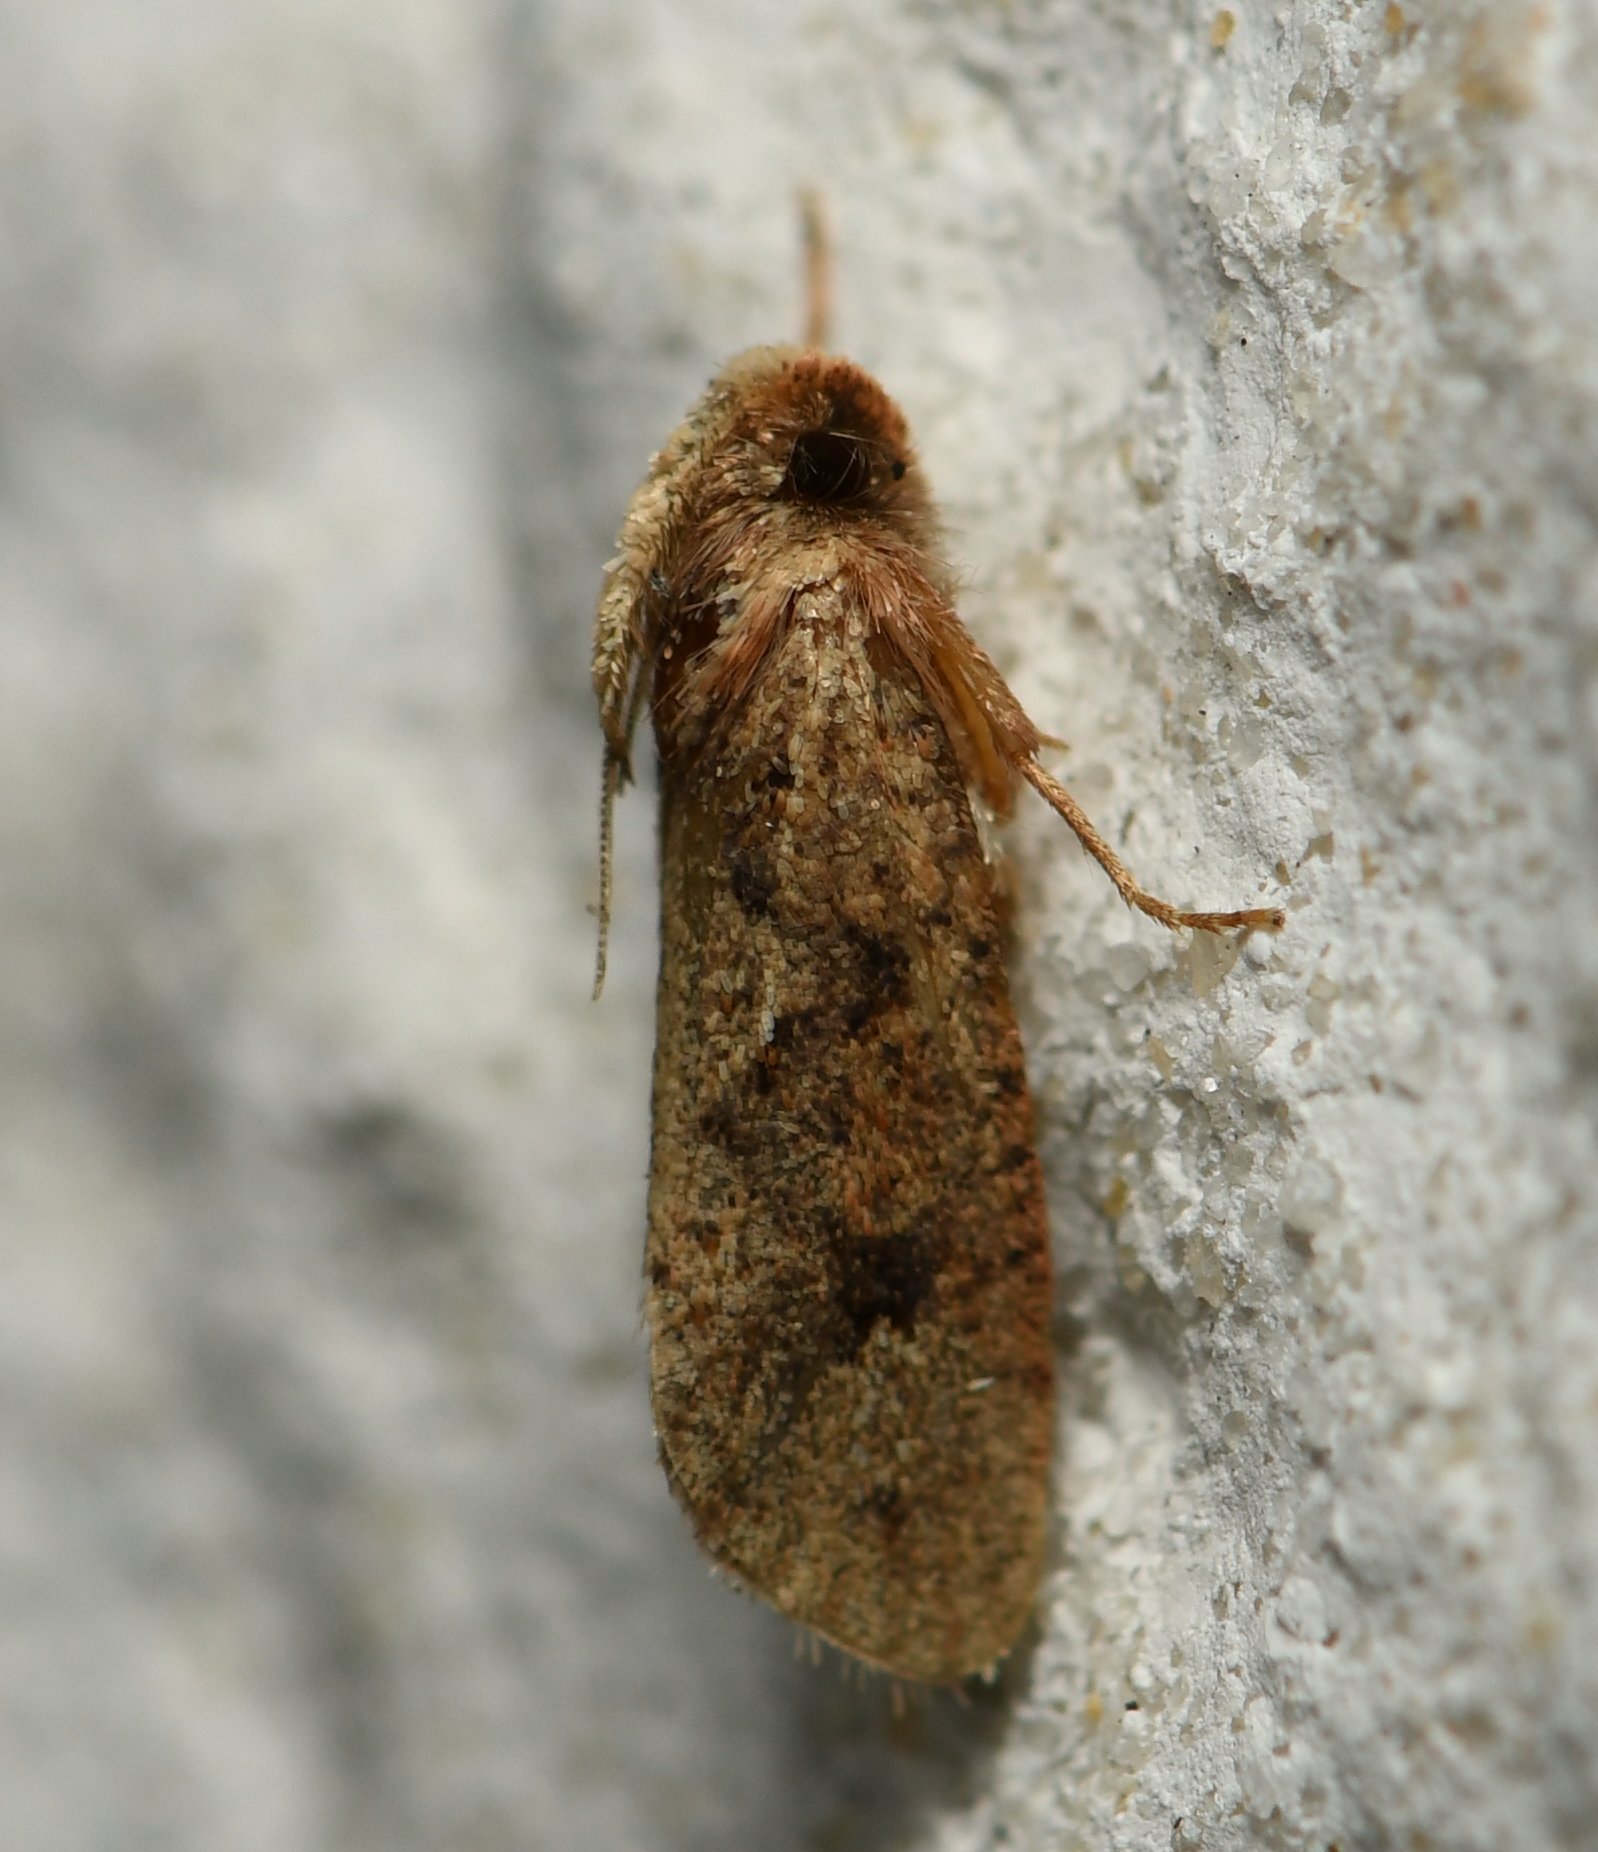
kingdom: Animalia
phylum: Arthropoda
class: Insecta
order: Lepidoptera
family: Tineidae
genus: Acrolophus
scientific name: Acrolophus walsinghami
